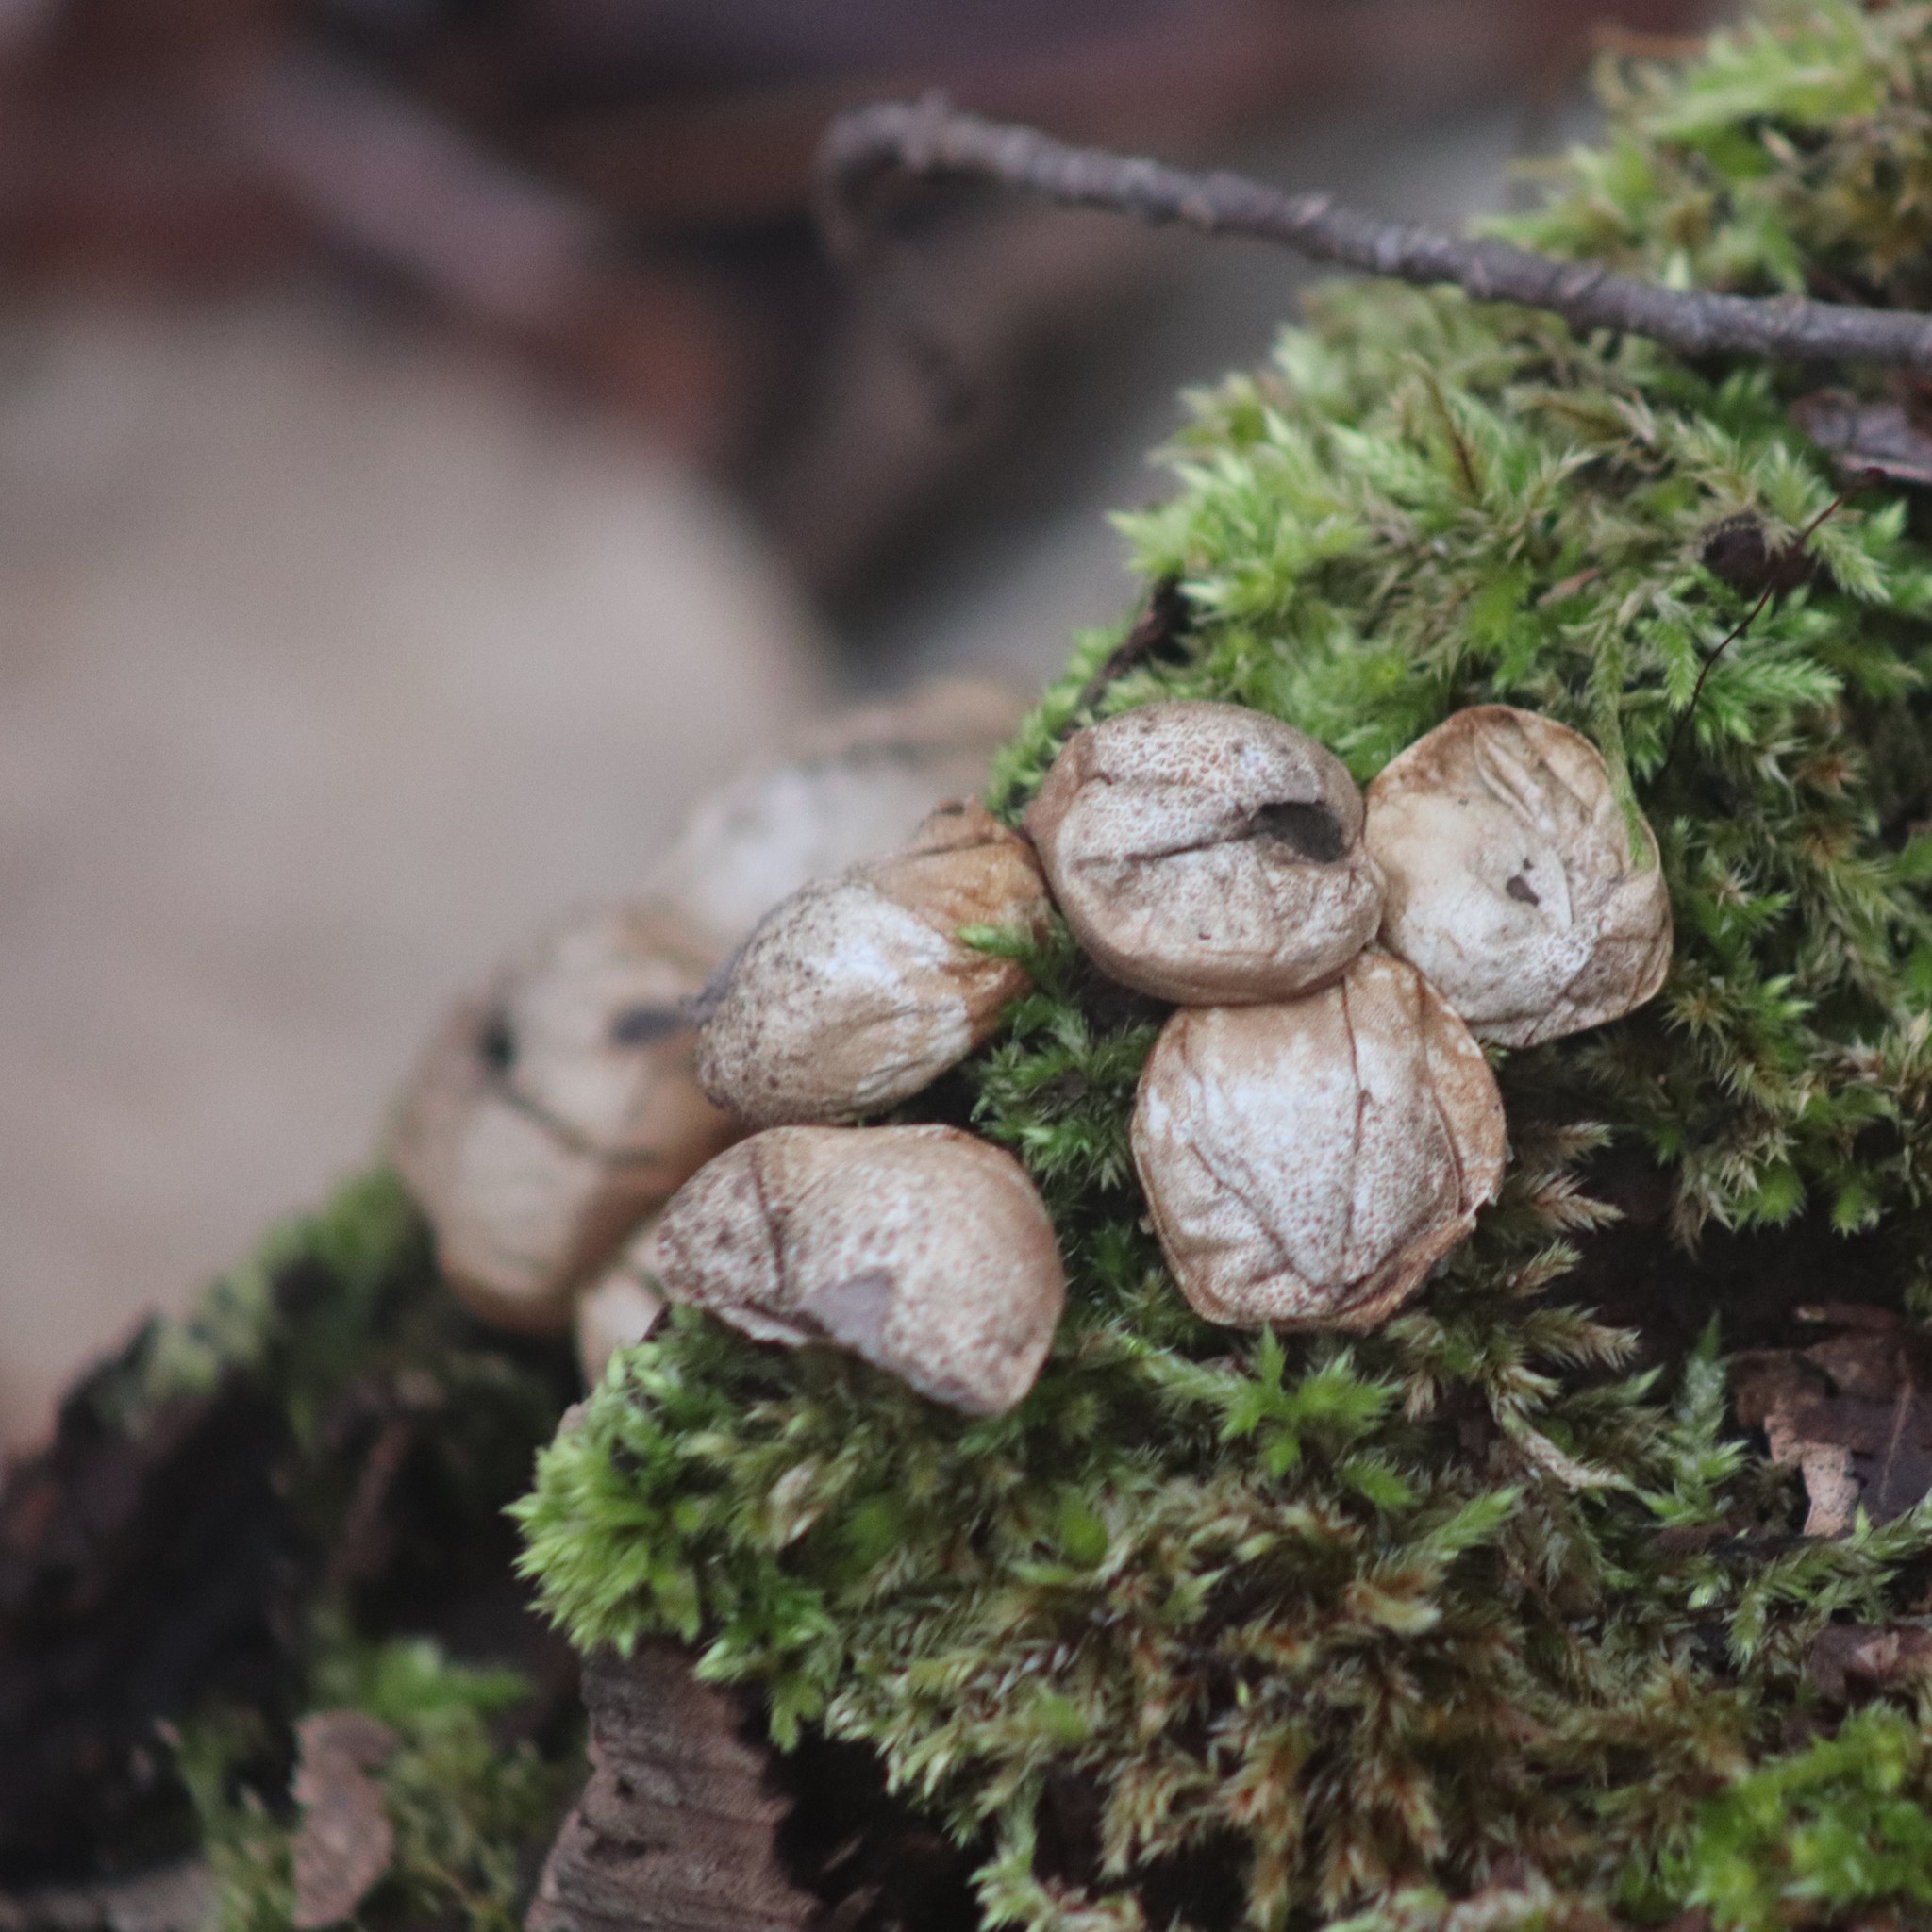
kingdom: Fungi
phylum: Basidiomycota
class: Agaricomycetes
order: Agaricales
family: Lycoperdaceae
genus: Apioperdon
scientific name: Apioperdon pyriforme
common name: Pear-shaped puffball
